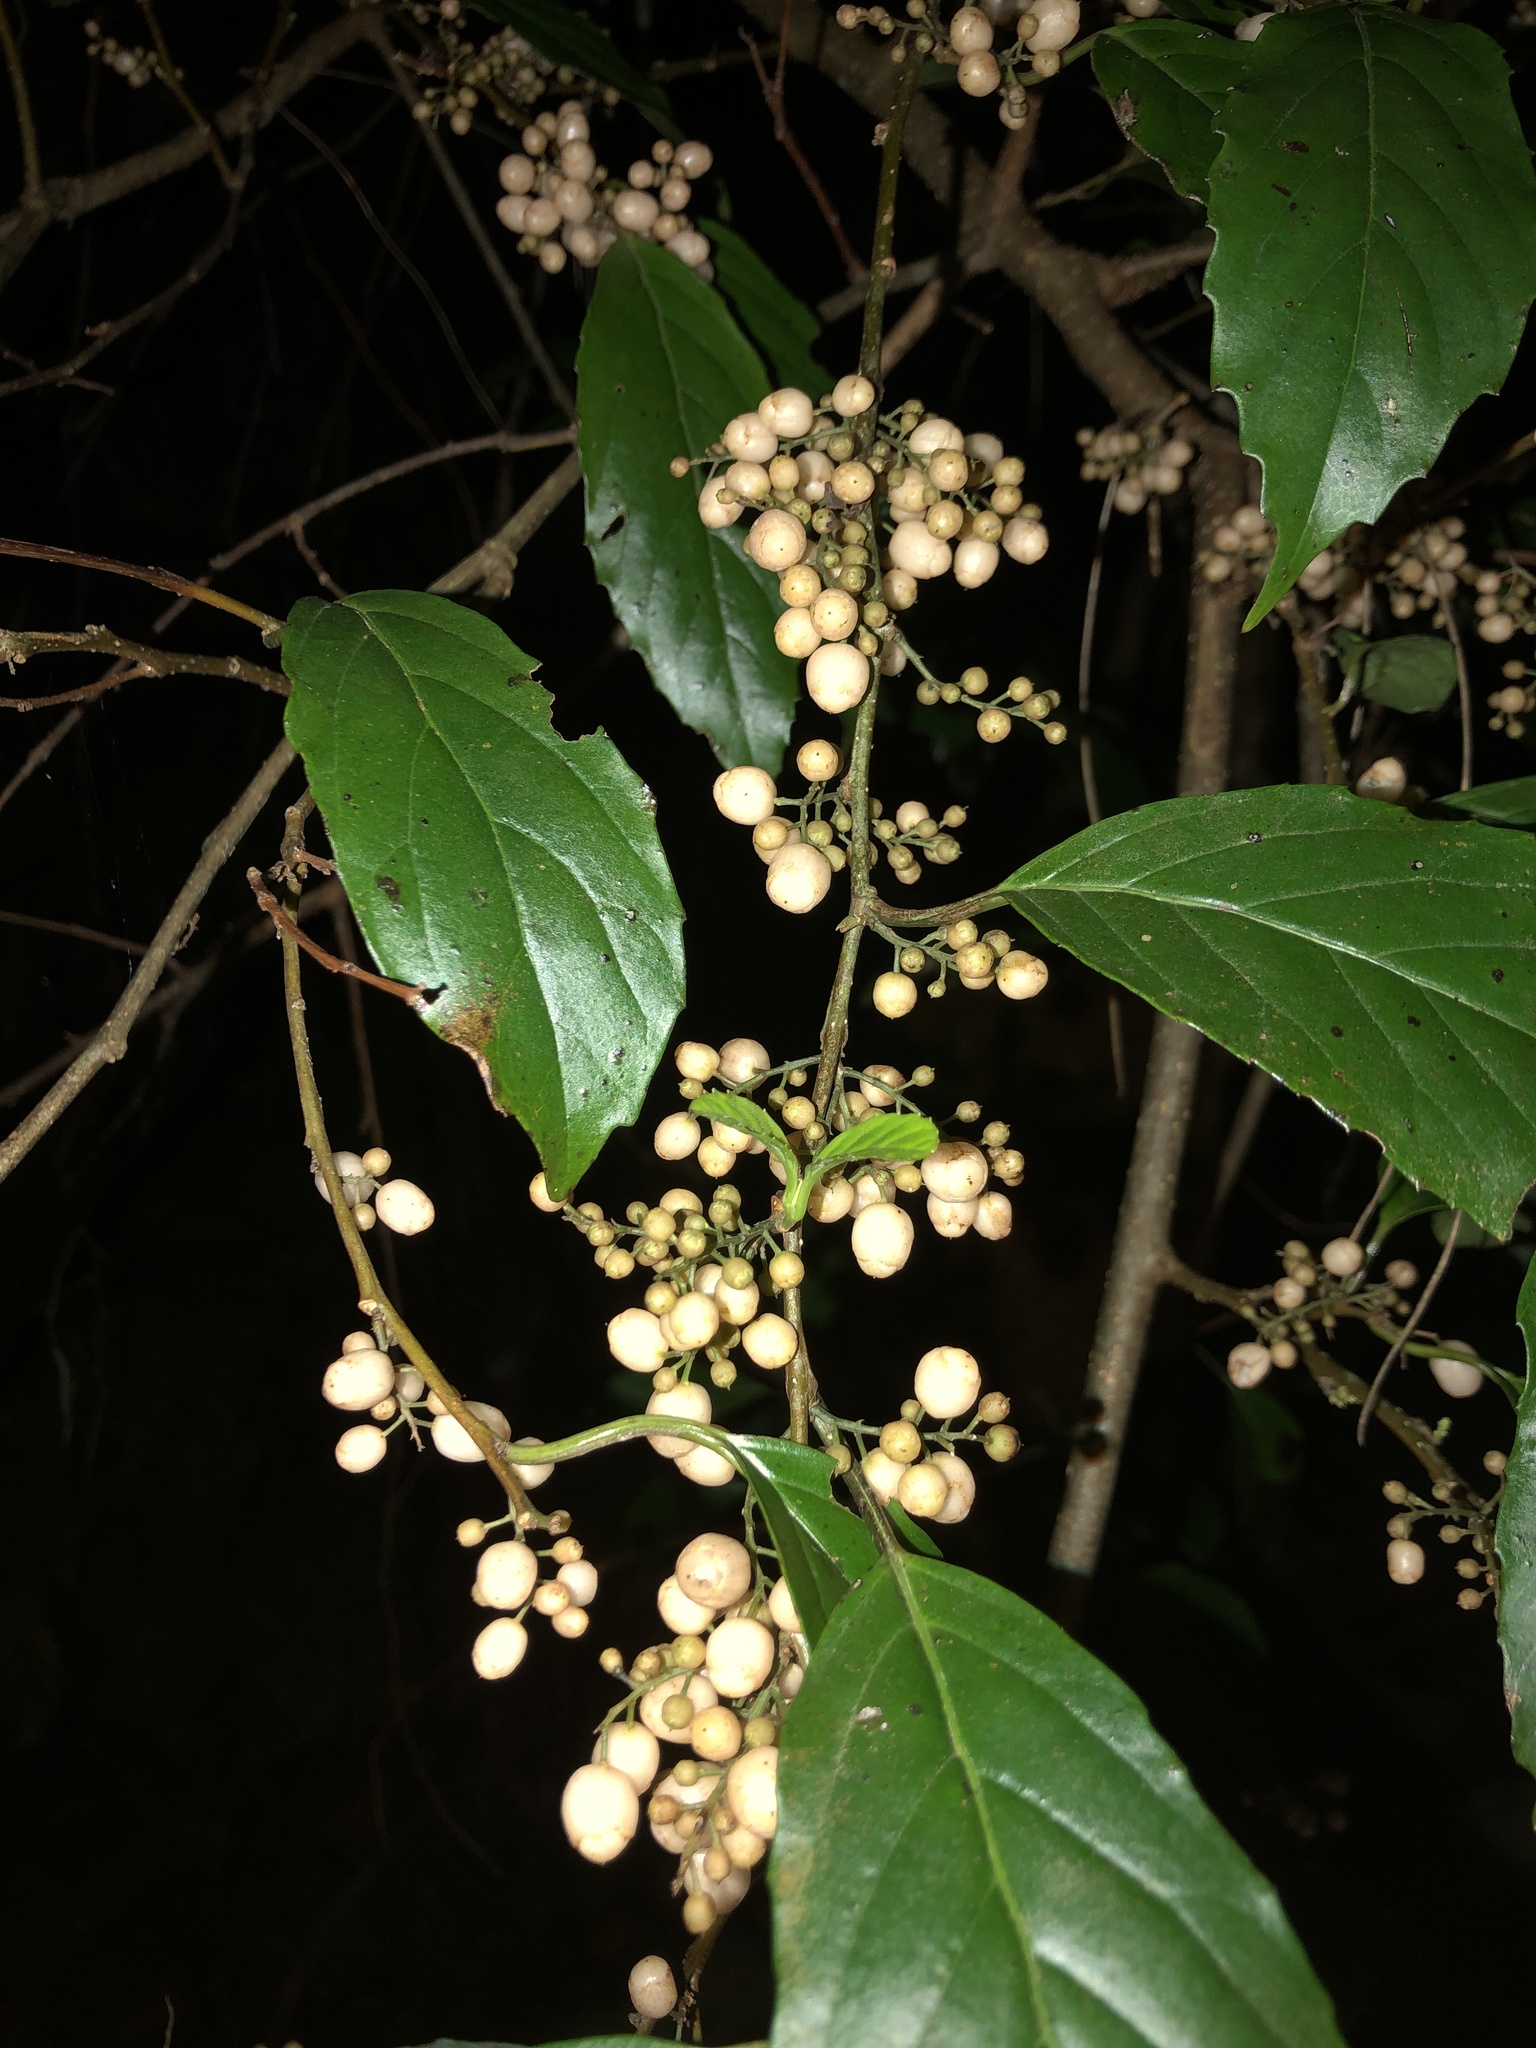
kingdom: Plantae
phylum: Tracheophyta
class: Magnoliopsida
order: Ericales
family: Primulaceae
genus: Maesa
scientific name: Maesa perlaria
